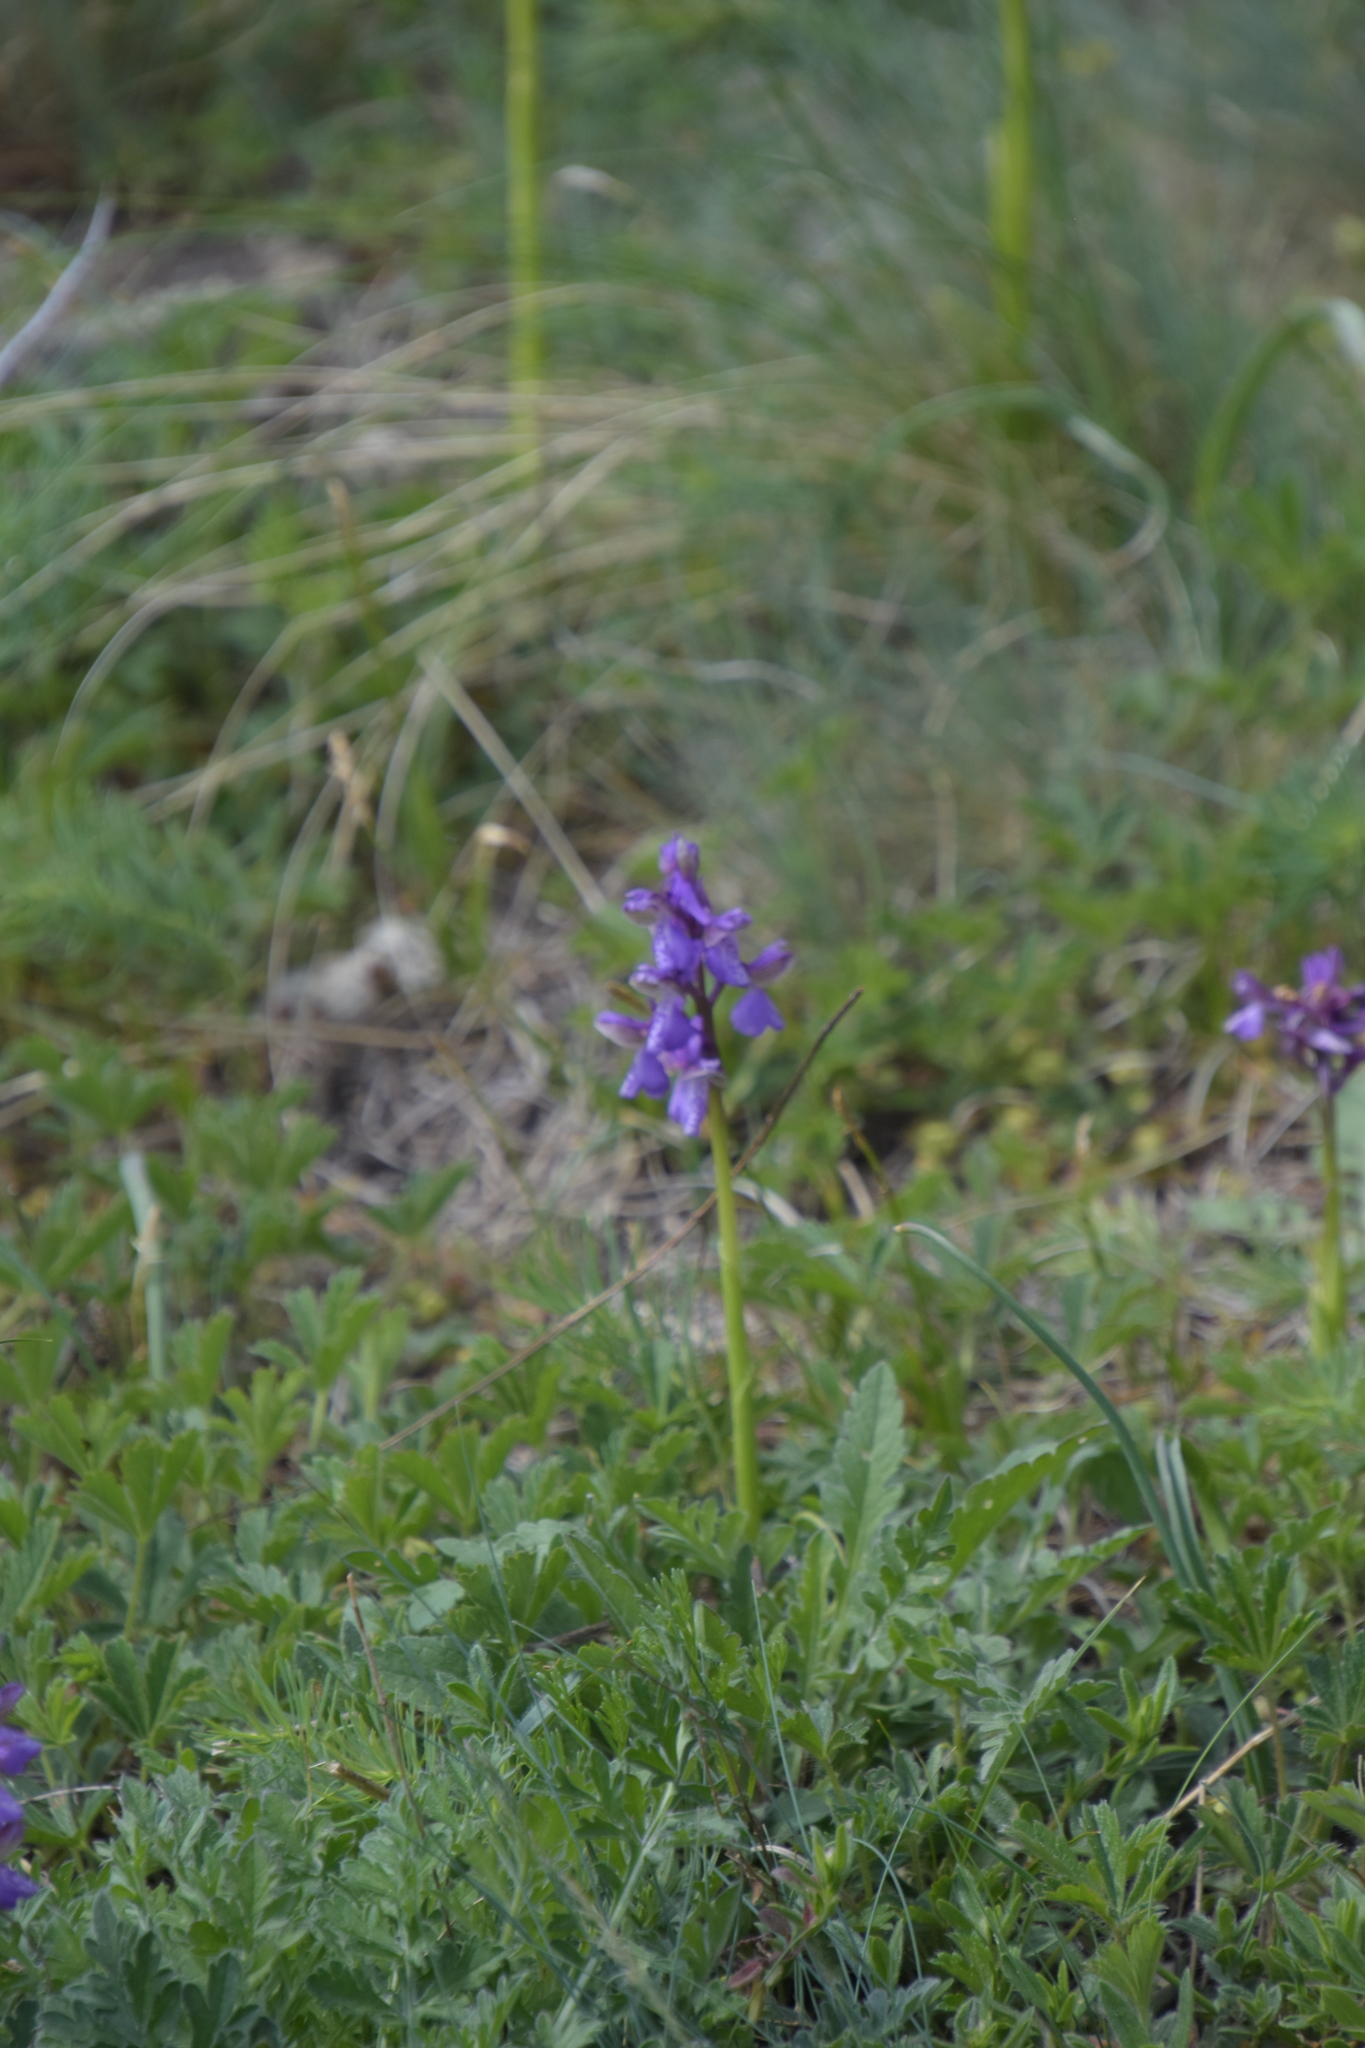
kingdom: Plantae
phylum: Tracheophyta
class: Liliopsida
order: Asparagales
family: Orchidaceae
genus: Anacamptis
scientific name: Anacamptis morio
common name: Green-winged orchid
